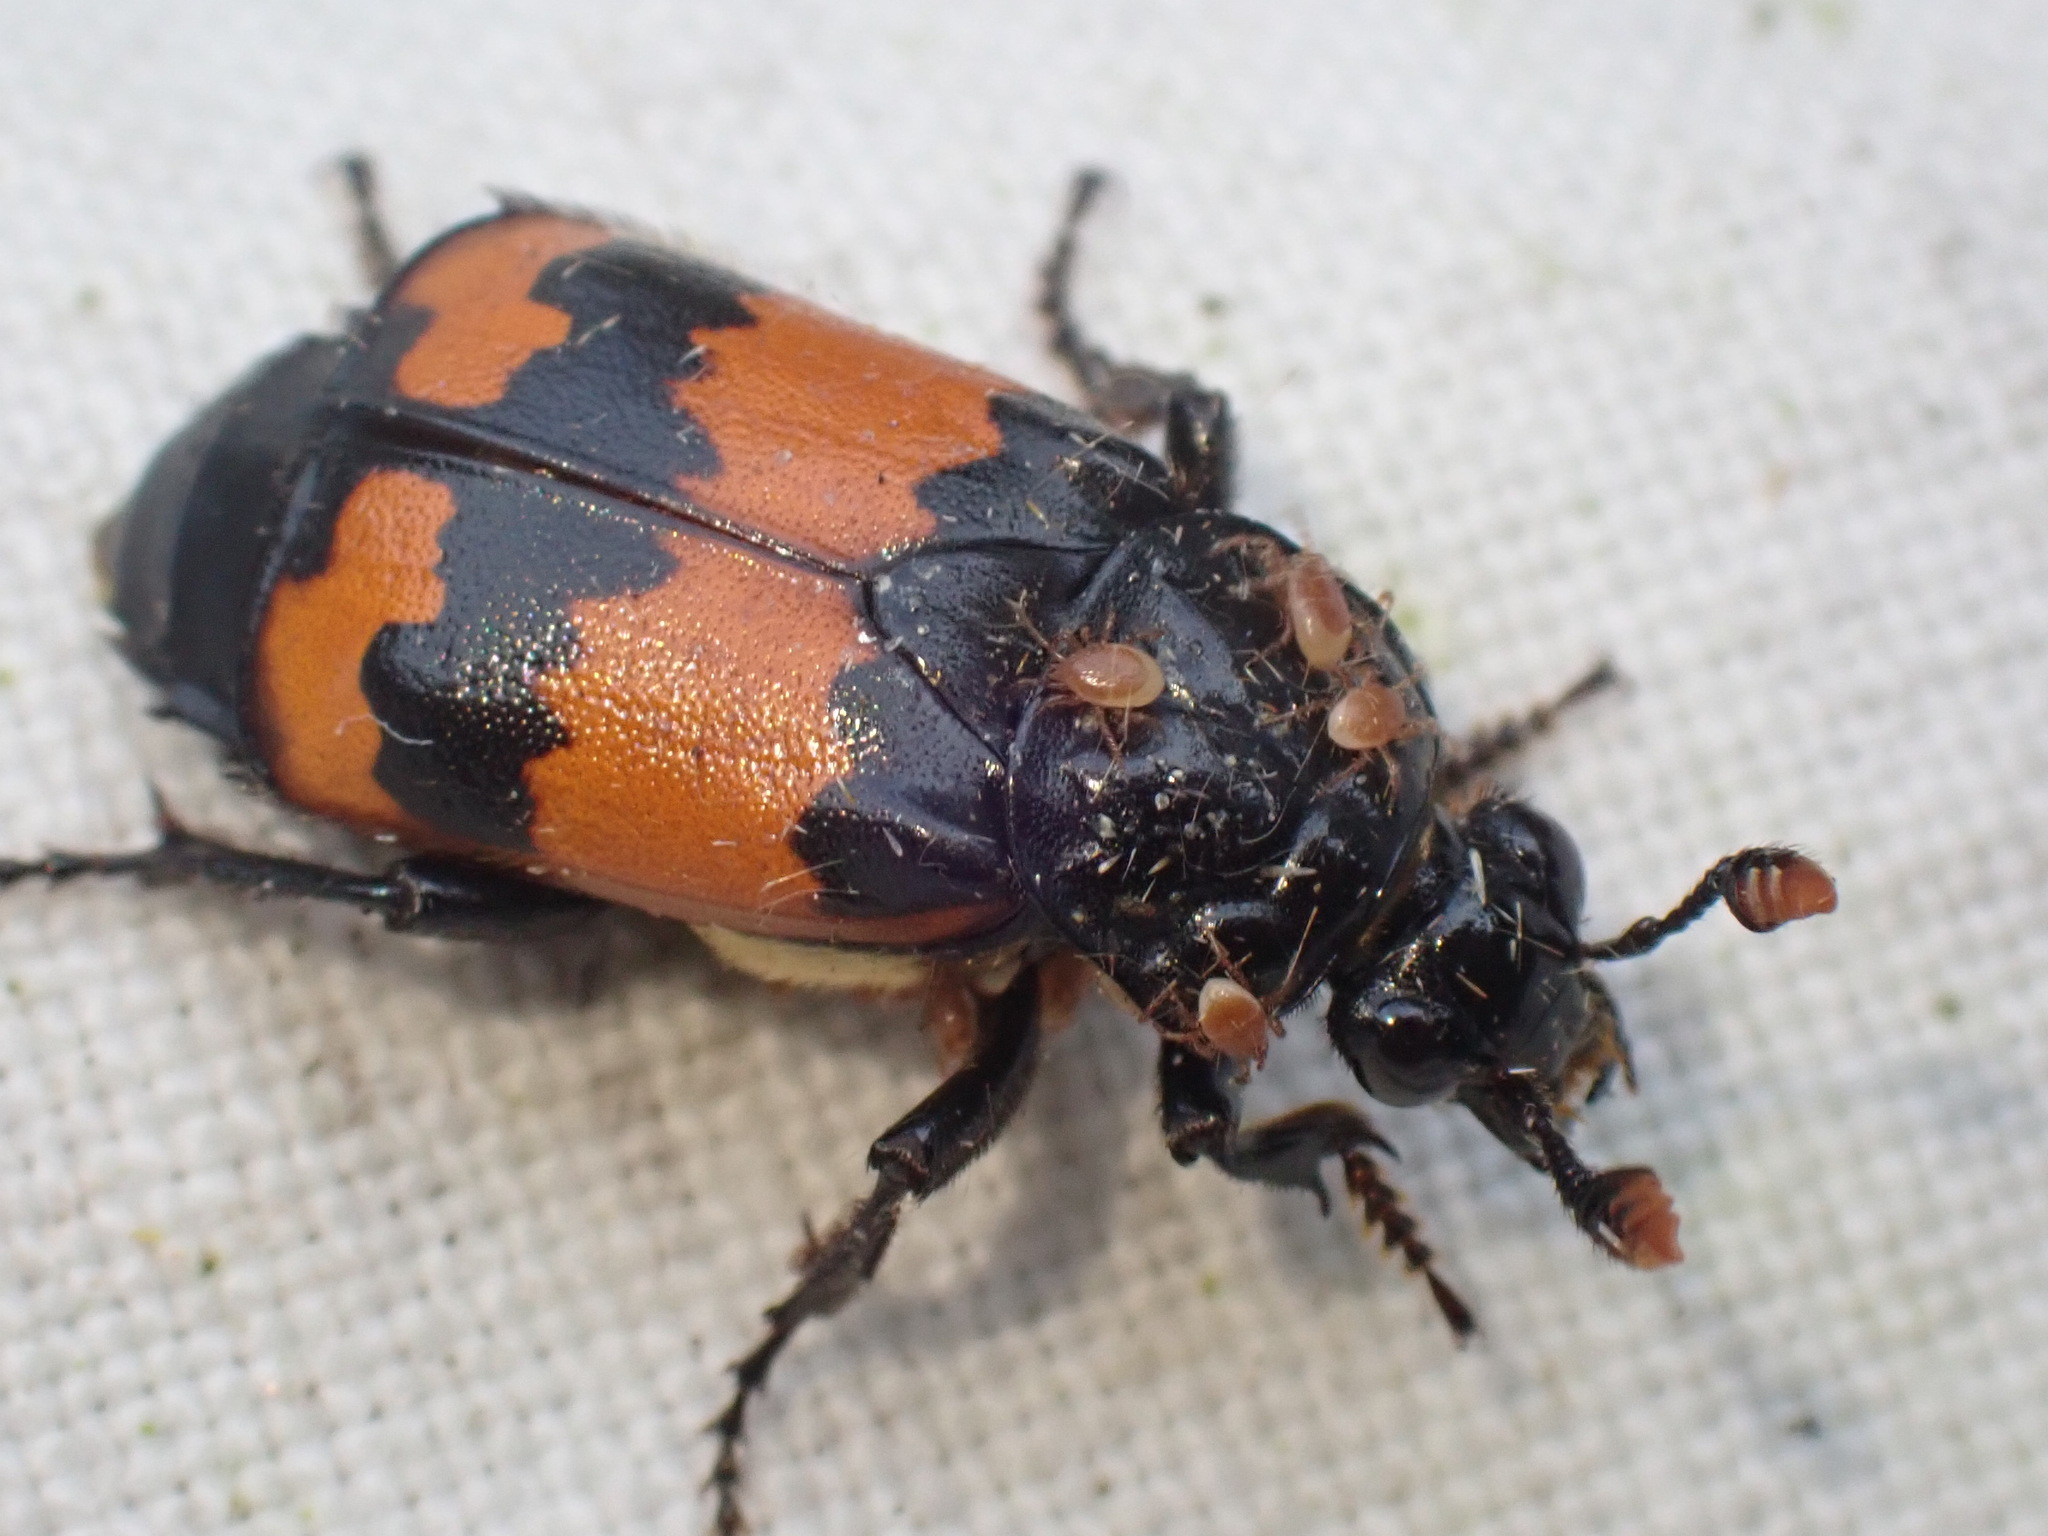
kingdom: Animalia
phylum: Arthropoda
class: Insecta
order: Coleoptera
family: Staphylinidae
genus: Nicrophorus
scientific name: Nicrophorus investigator
